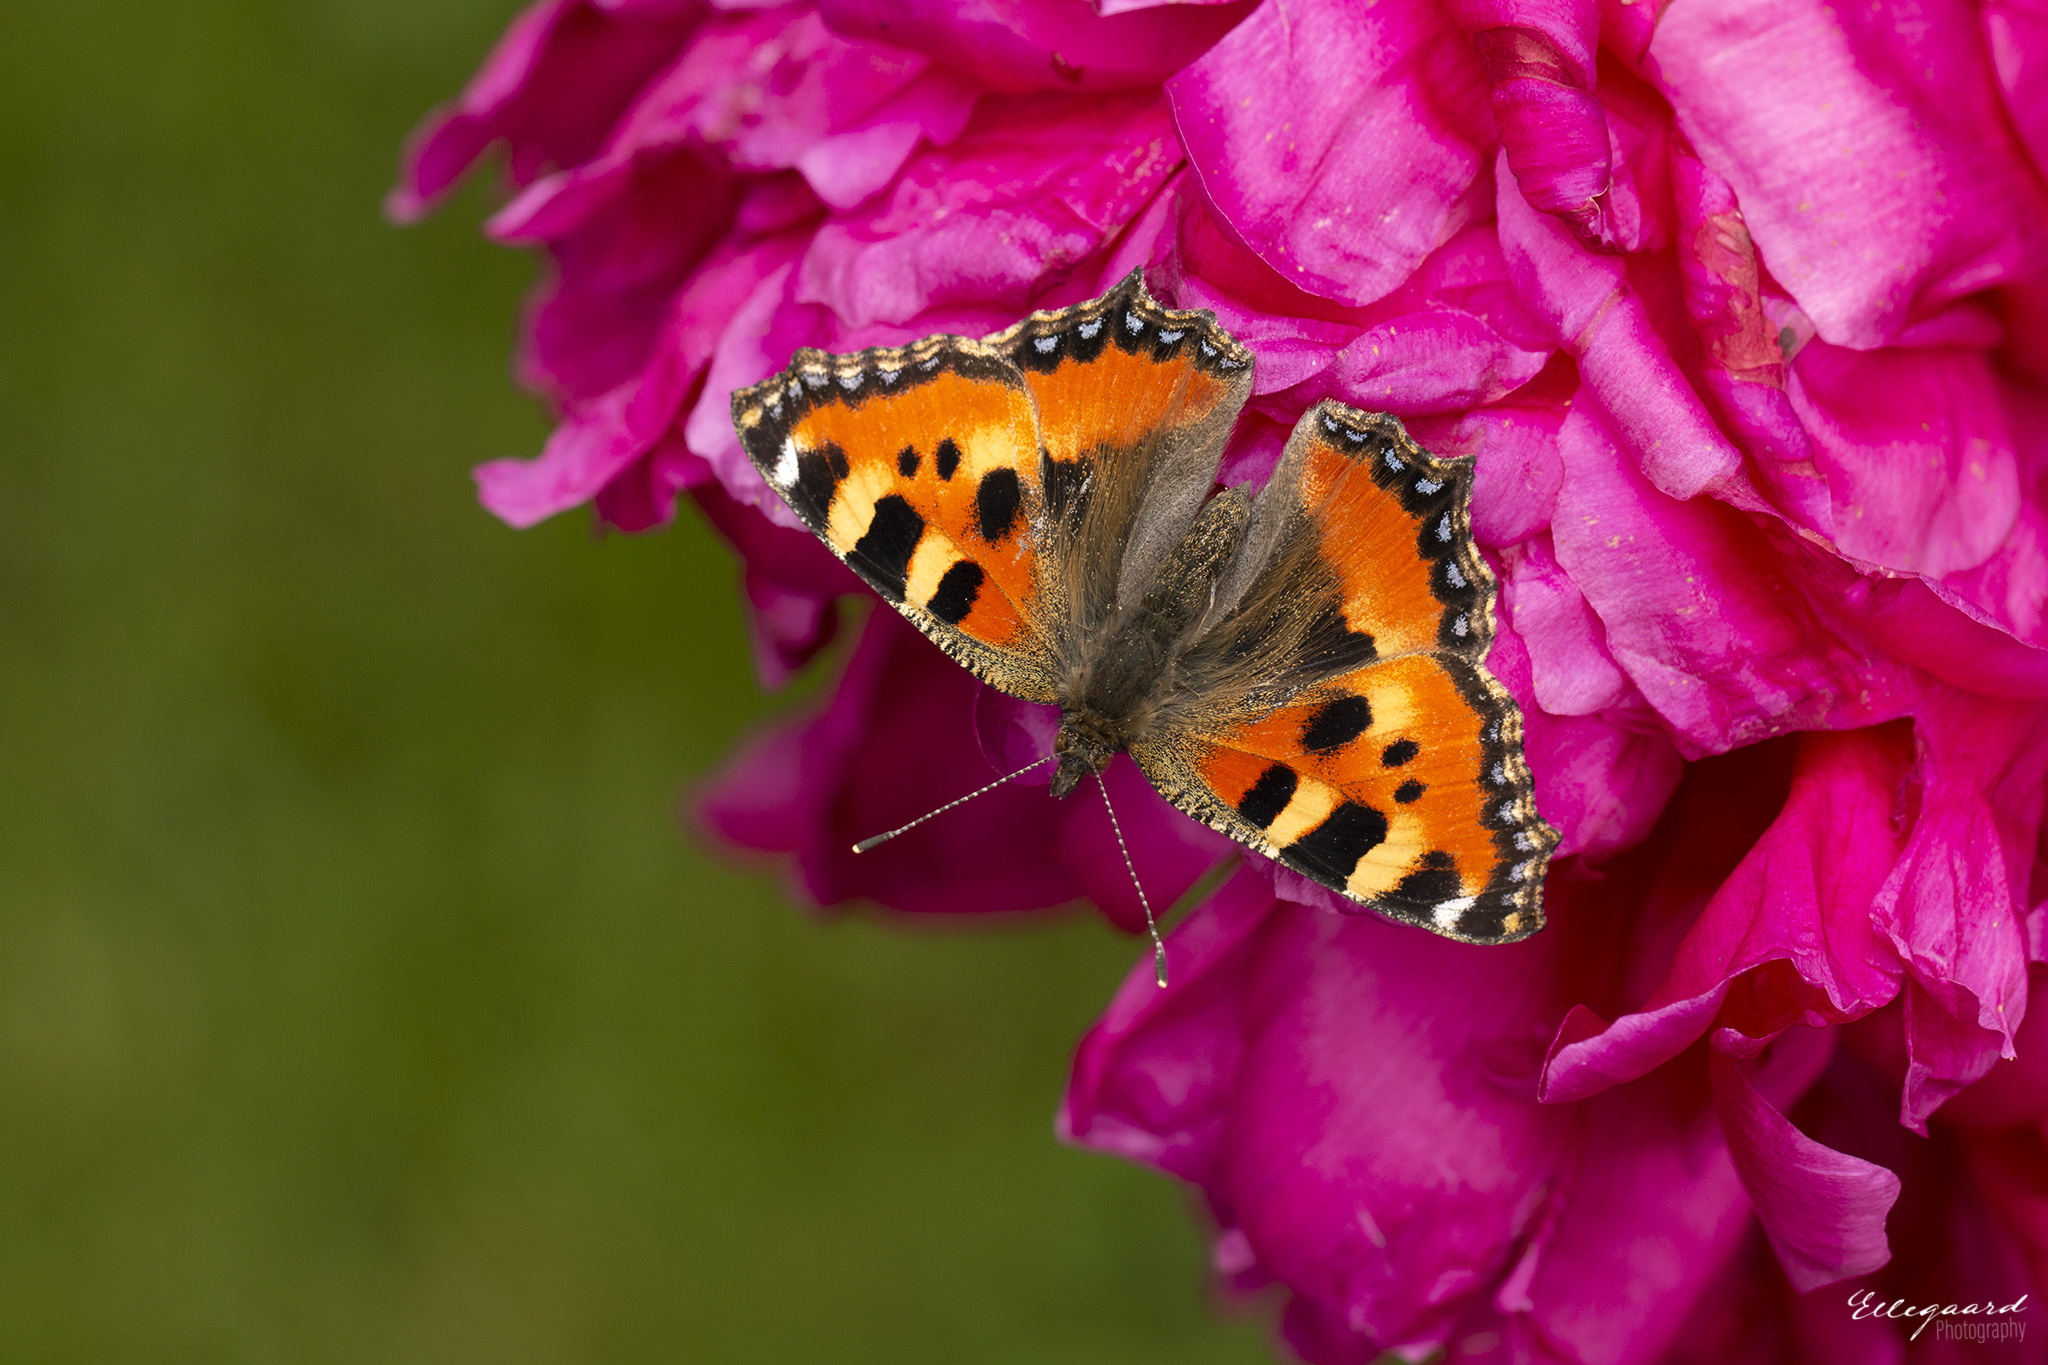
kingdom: Animalia
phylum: Arthropoda
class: Insecta
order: Lepidoptera
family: Nymphalidae
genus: Aglais
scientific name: Aglais urticae
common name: Small tortoiseshell
